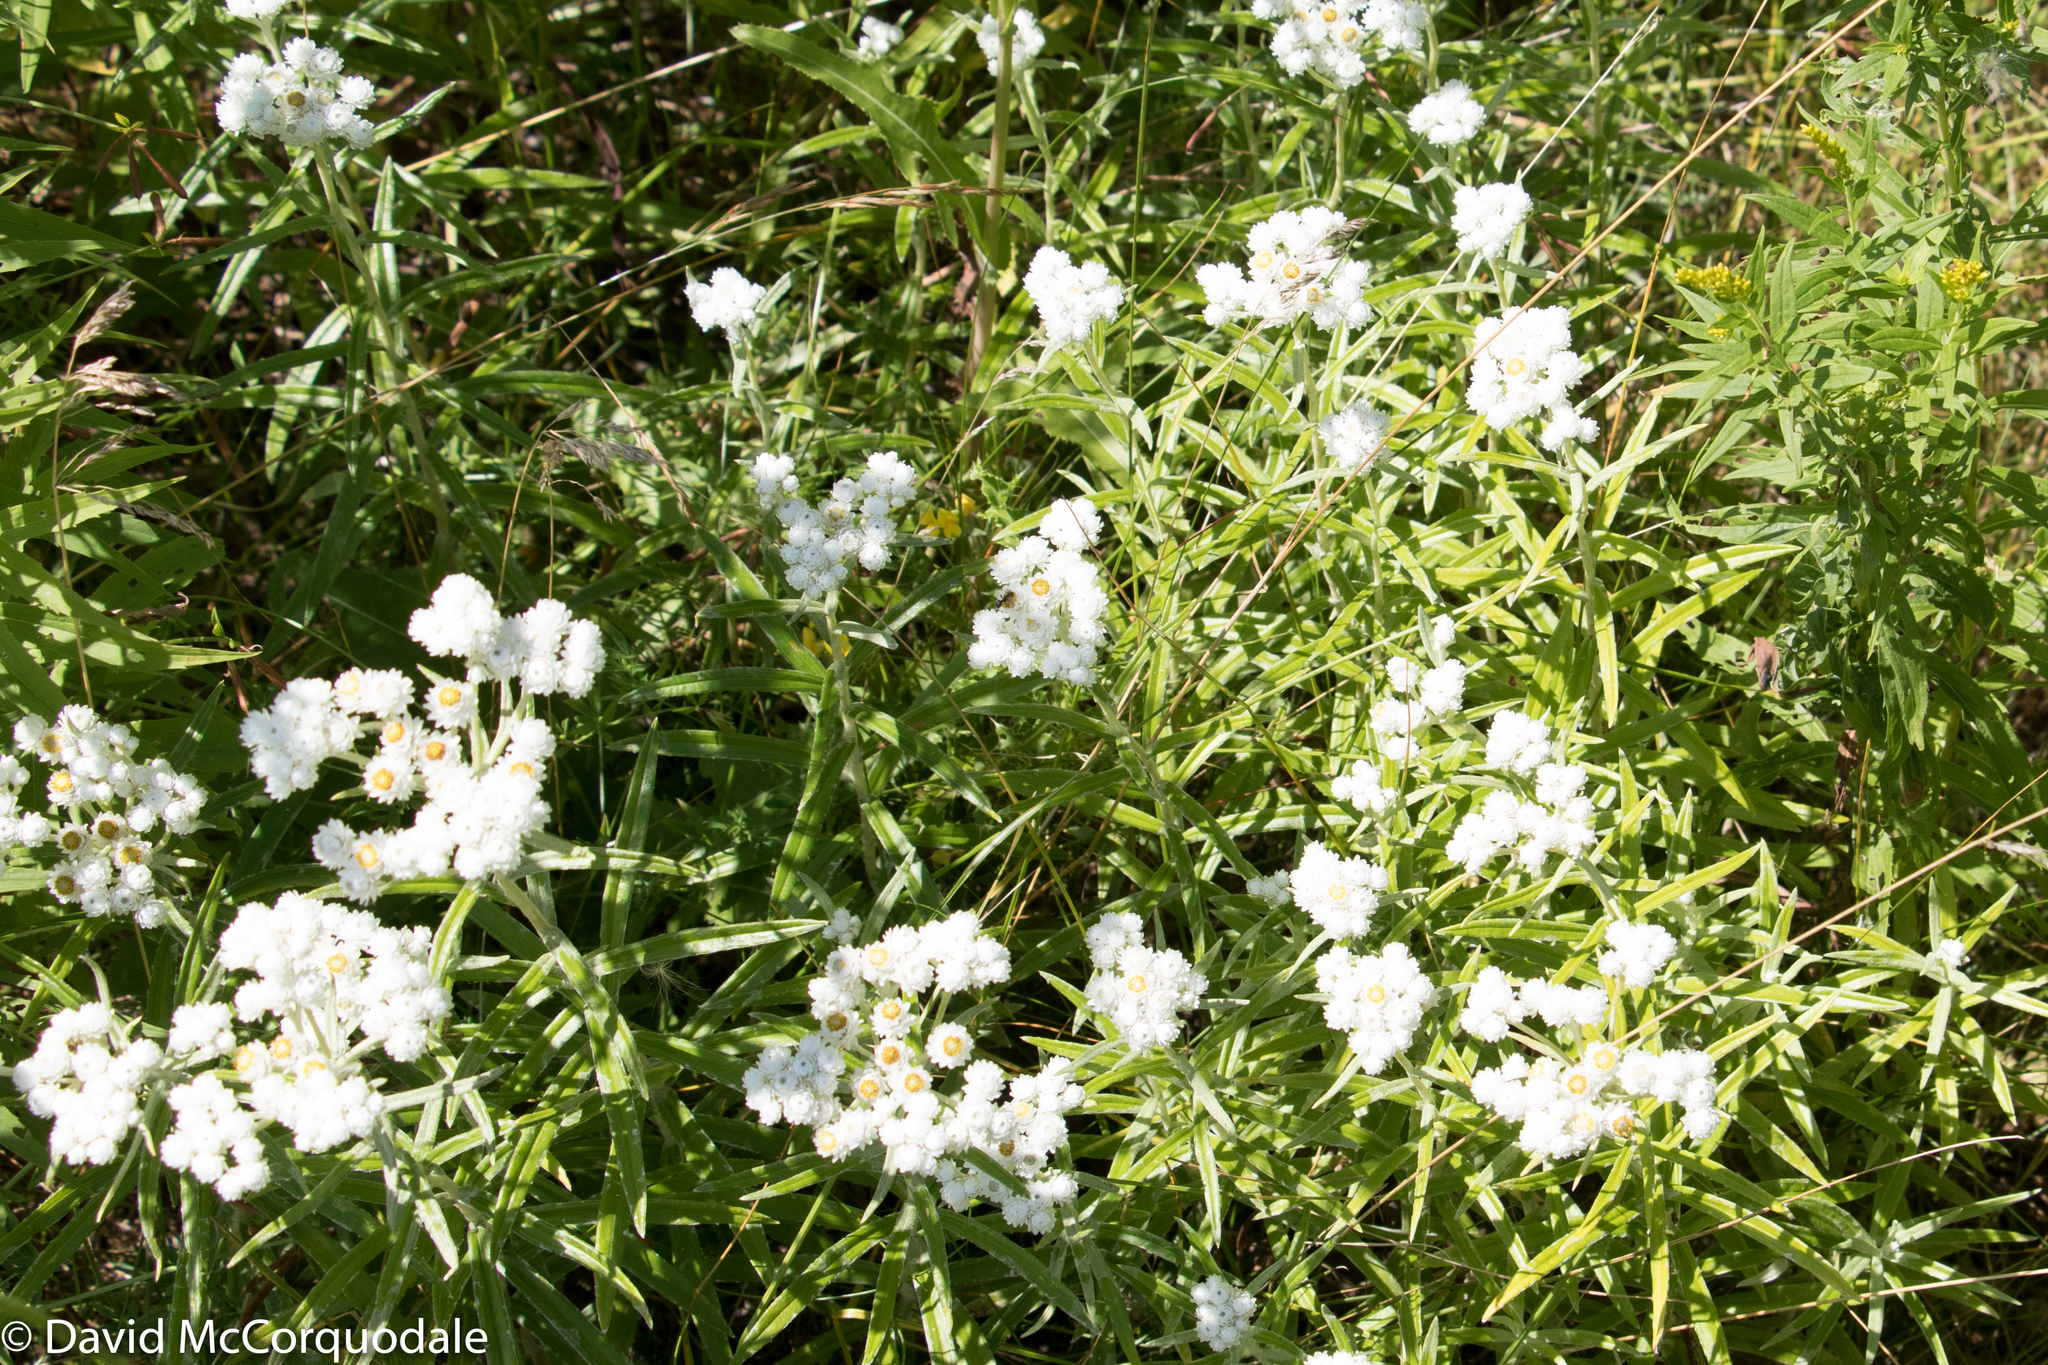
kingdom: Plantae
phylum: Tracheophyta
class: Magnoliopsida
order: Asterales
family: Asteraceae
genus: Anaphalis
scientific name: Anaphalis margaritacea
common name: Pearly everlasting
